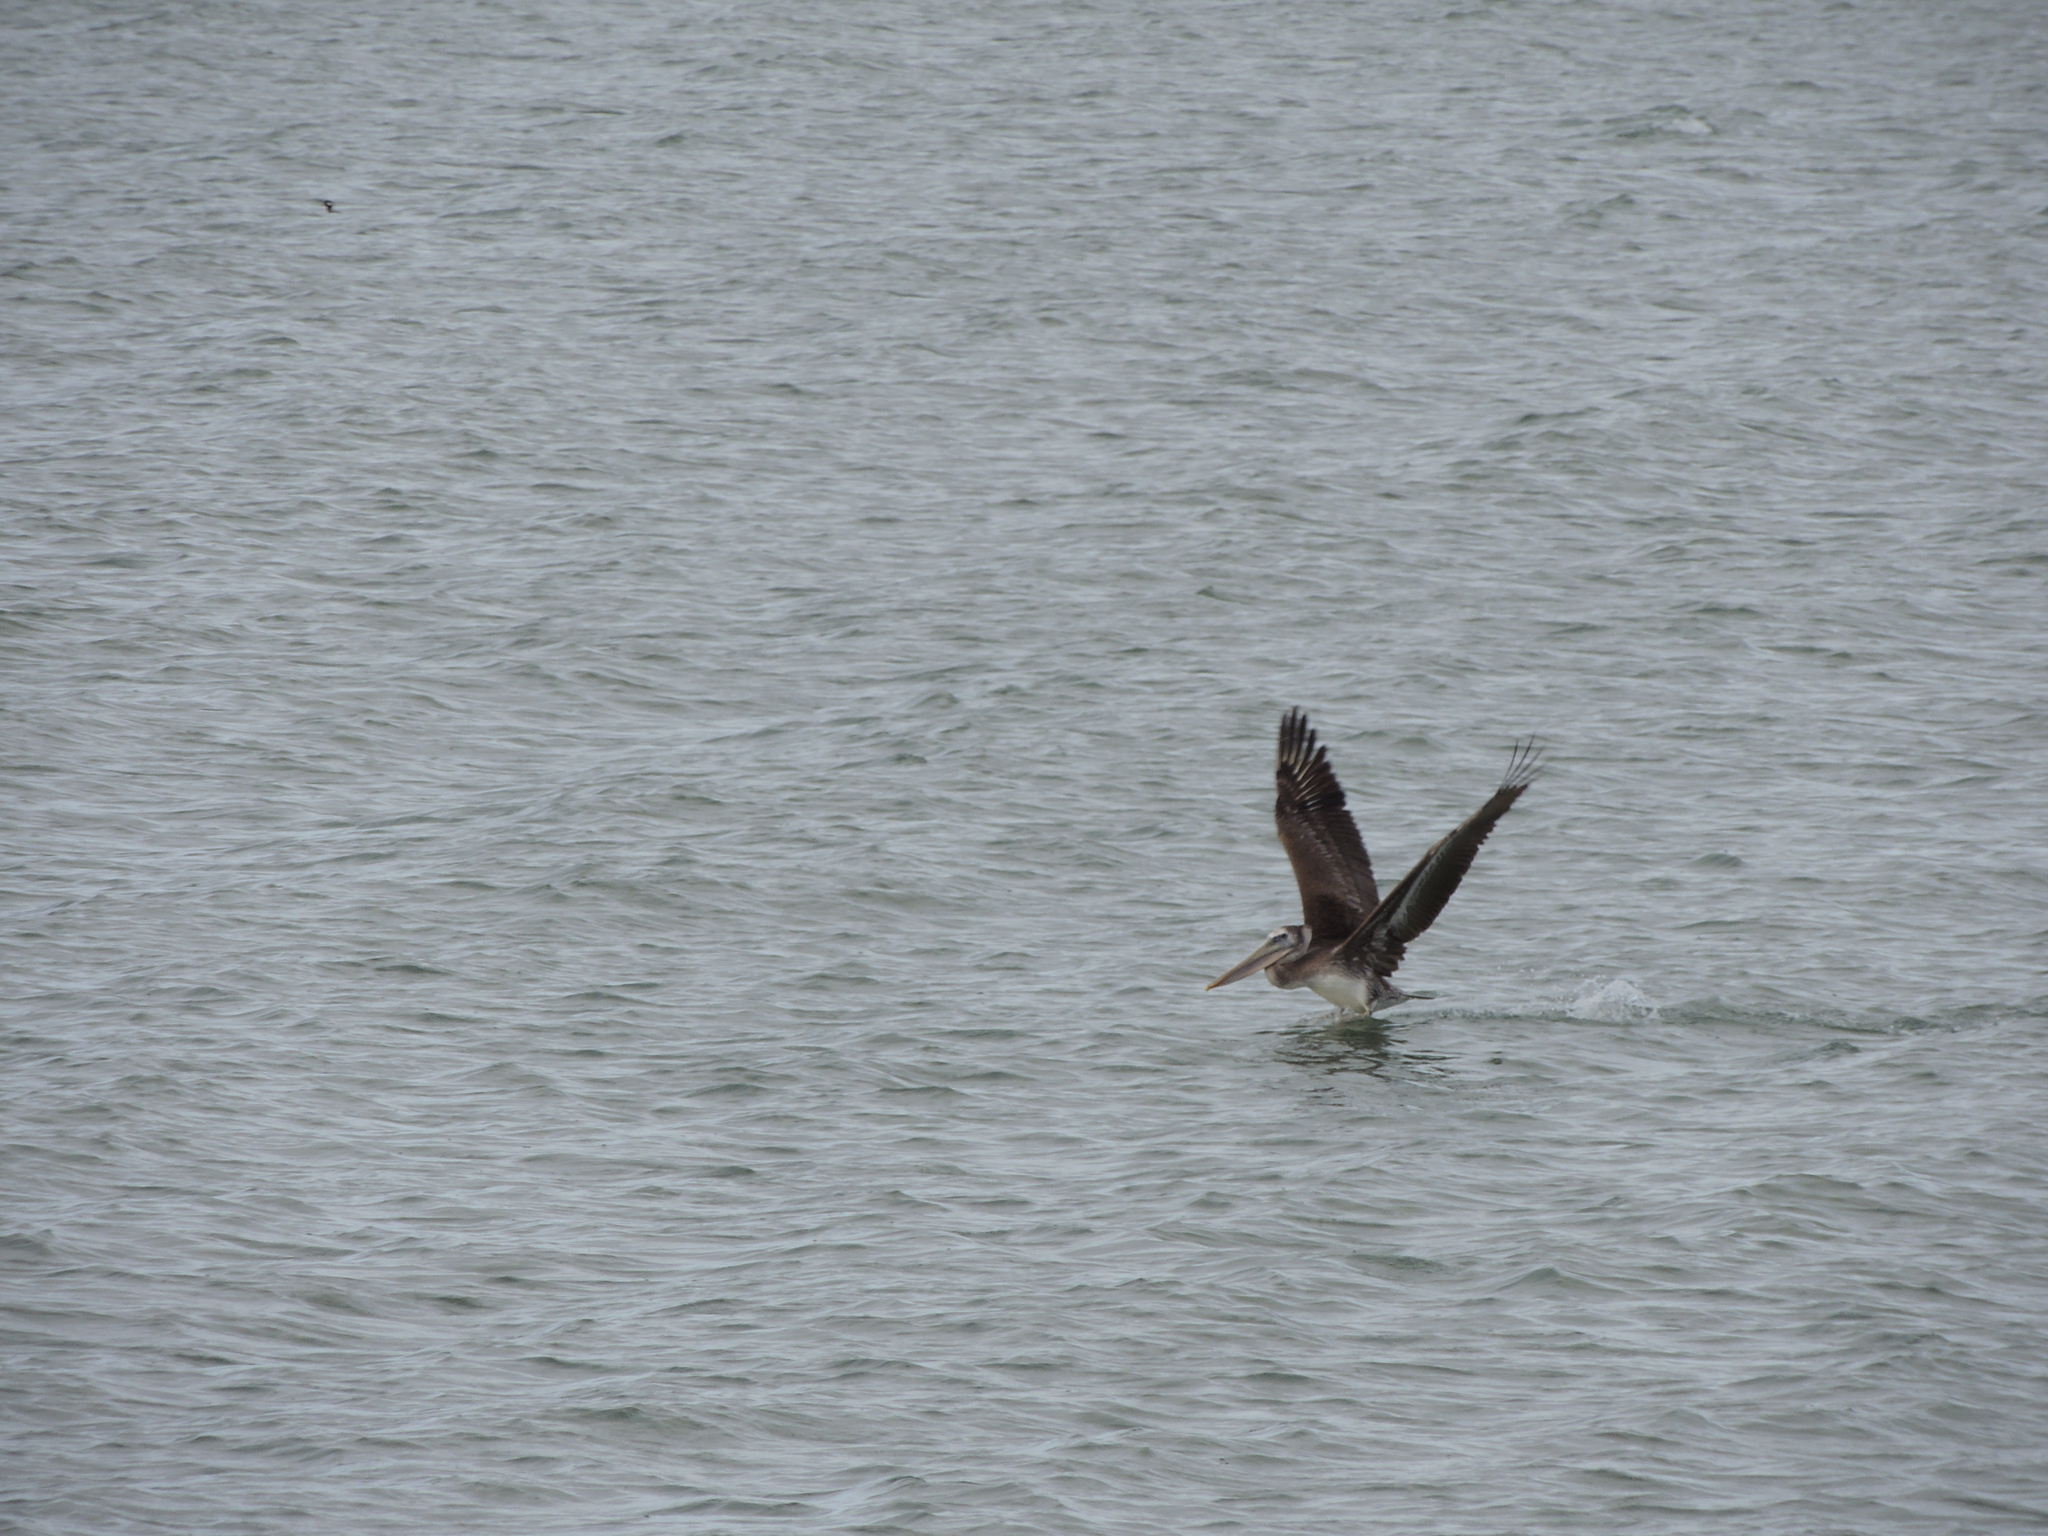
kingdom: Animalia
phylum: Chordata
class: Aves
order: Pelecaniformes
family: Pelecanidae
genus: Pelecanus
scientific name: Pelecanus occidentalis
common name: Brown pelican
